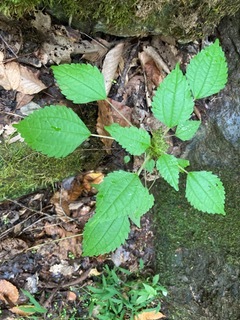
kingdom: Plantae
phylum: Tracheophyta
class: Magnoliopsida
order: Rosales
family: Urticaceae
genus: Pilea
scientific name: Pilea pumila
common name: Clearweed
